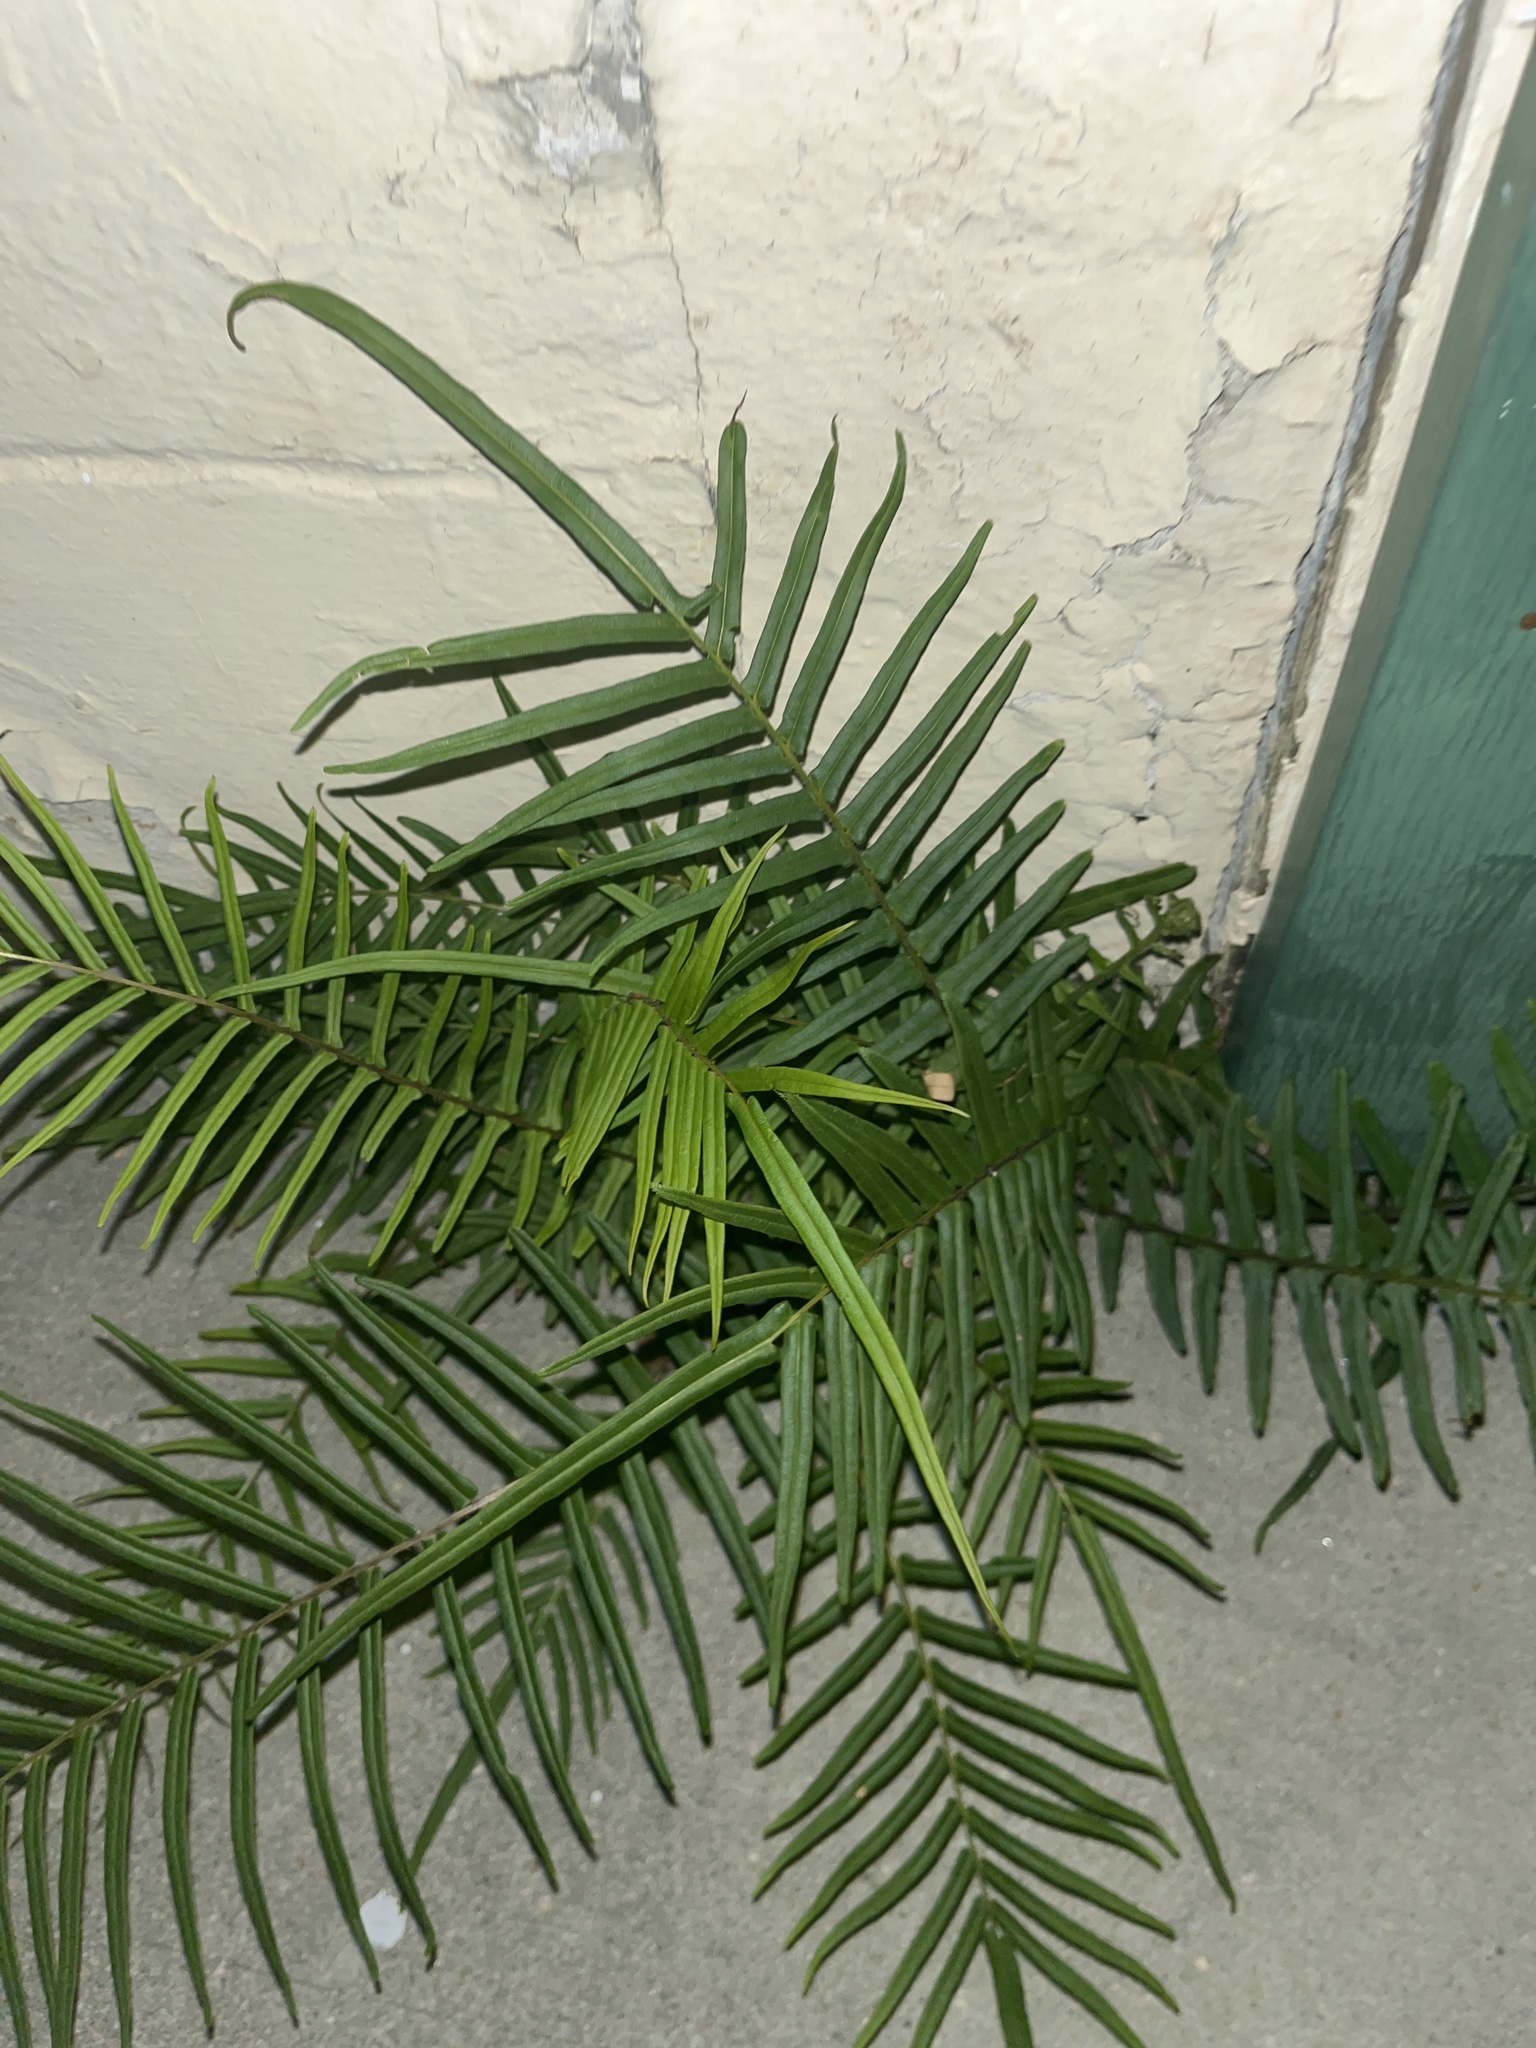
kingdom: Plantae
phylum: Tracheophyta
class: Polypodiopsida
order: Polypodiales
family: Pteridaceae
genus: Pteris
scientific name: Pteris vittata
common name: Ladder brake
